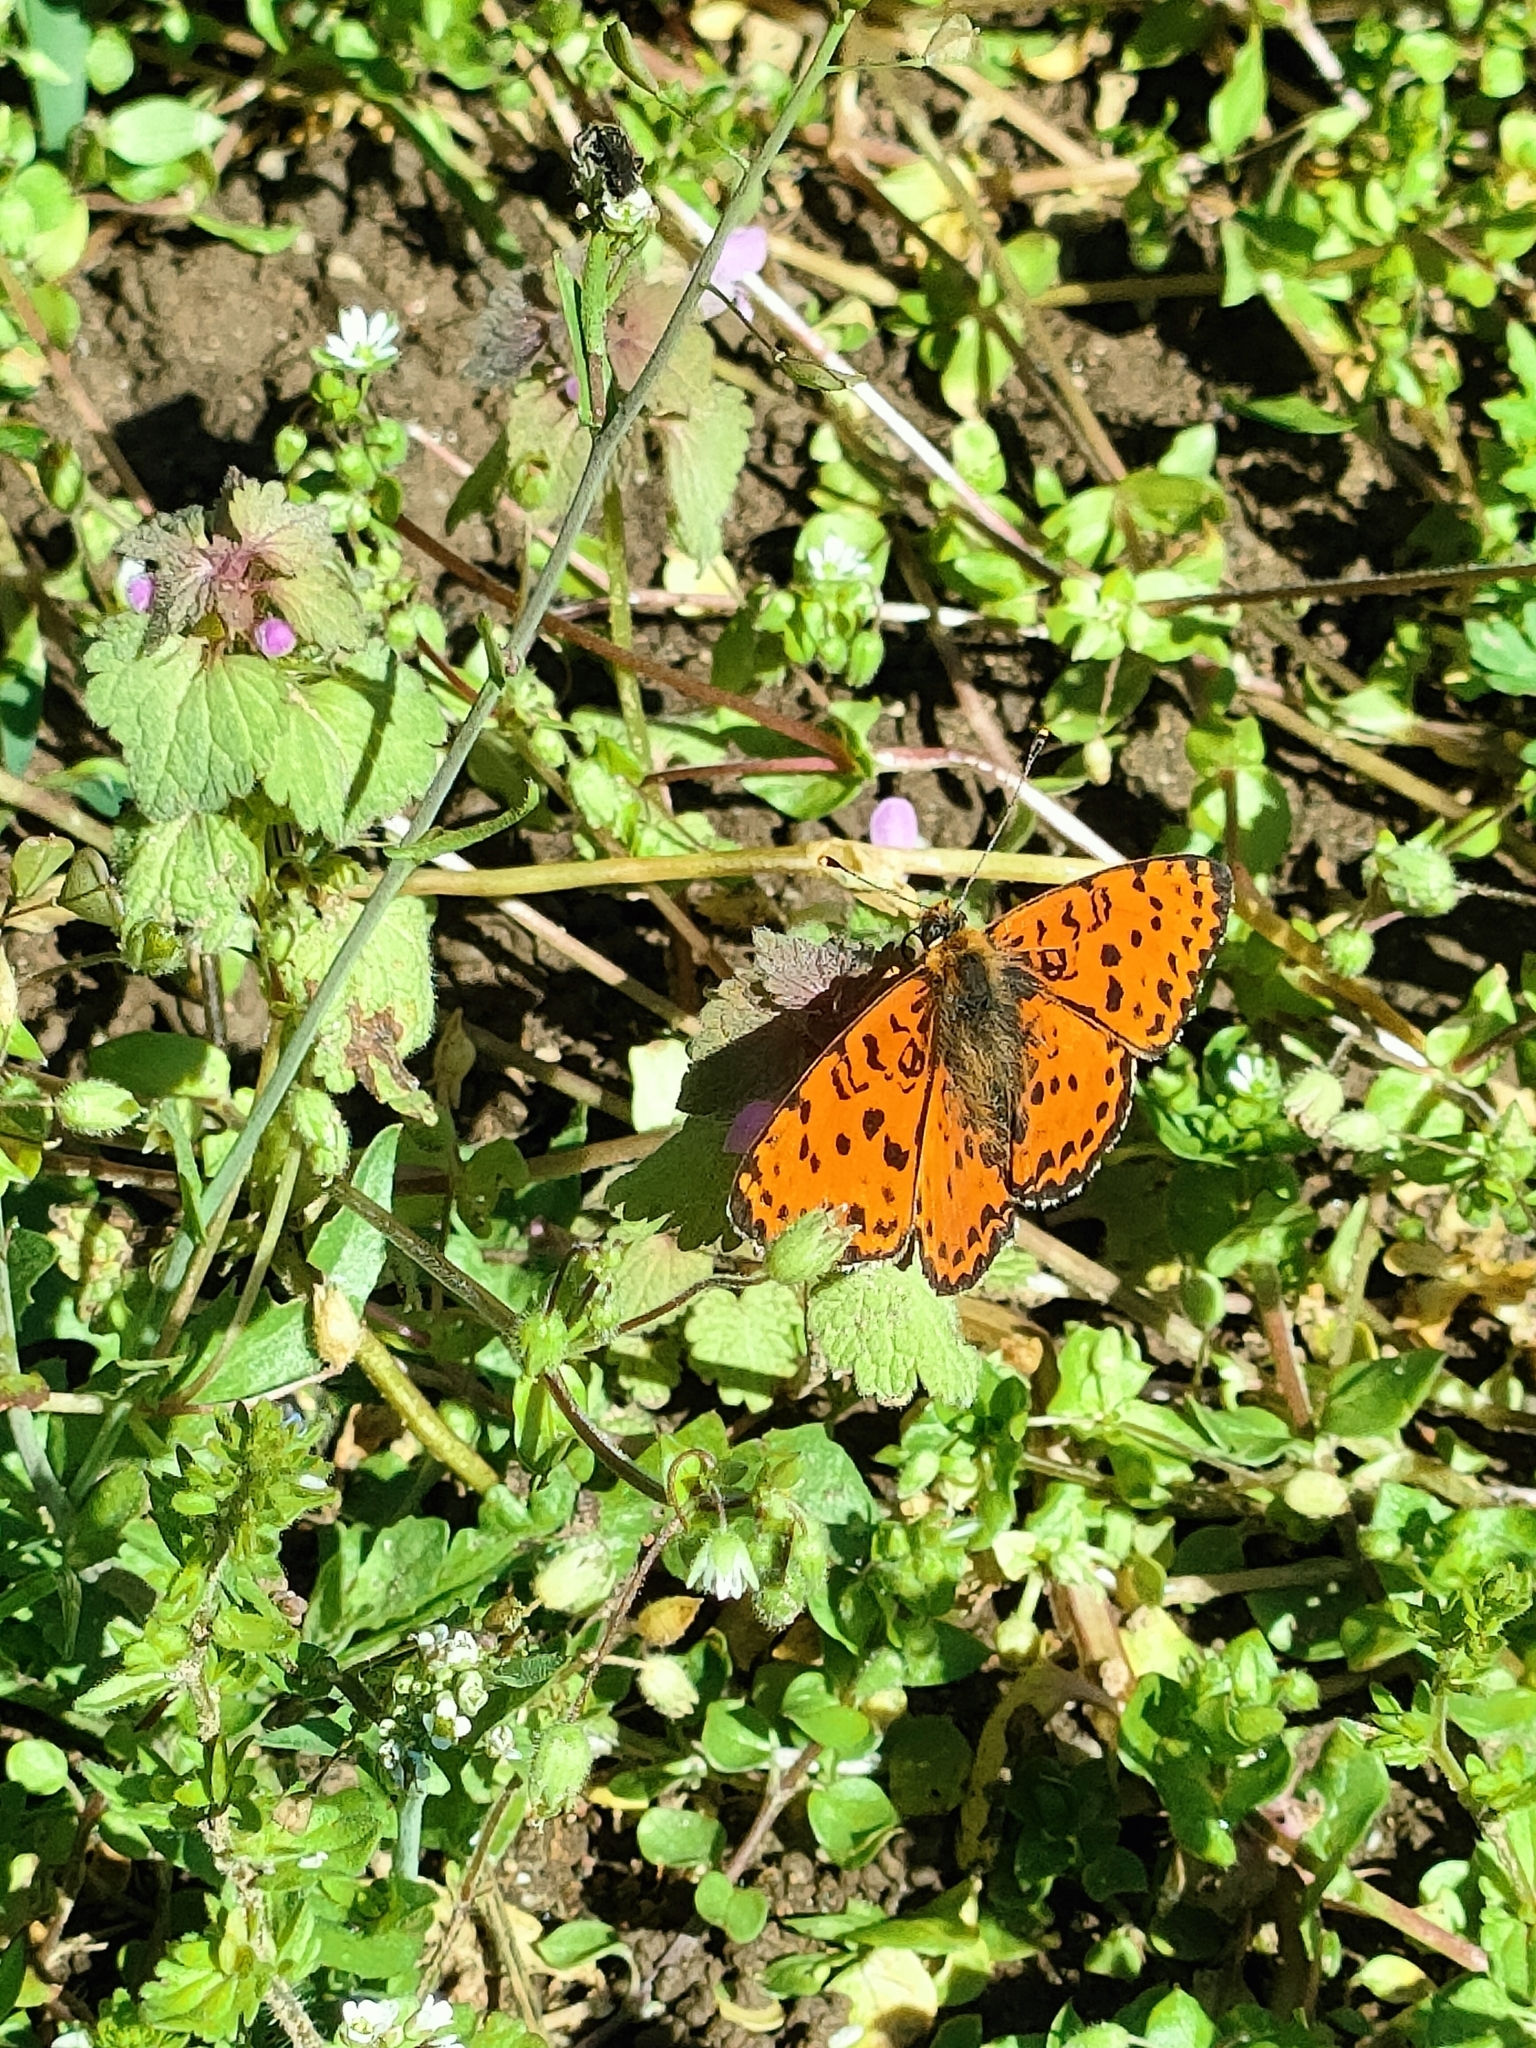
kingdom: Animalia
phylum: Arthropoda
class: Insecta
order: Lepidoptera
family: Nymphalidae
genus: Melitaea
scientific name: Melitaea didyma
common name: Spotted fritillary
